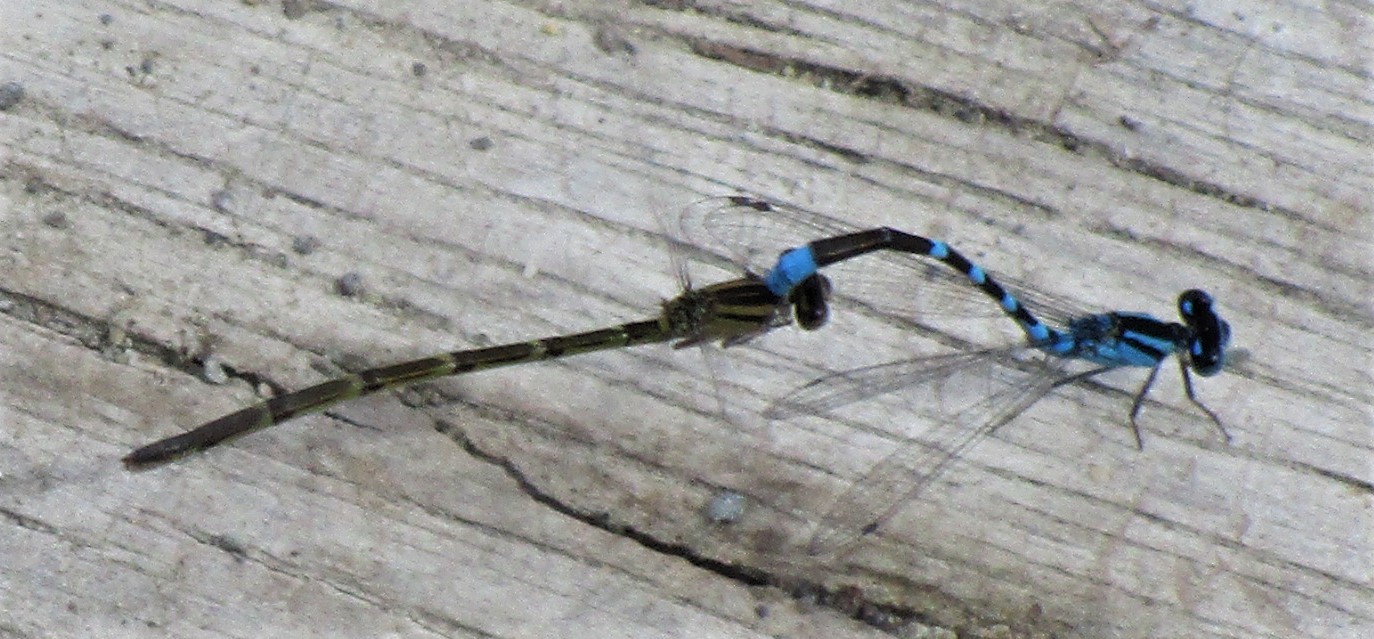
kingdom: Animalia
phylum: Arthropoda
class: Insecta
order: Odonata
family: Coenagrionidae
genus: Enallagma
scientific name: Enallagma carunculatum
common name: Tule bluet
